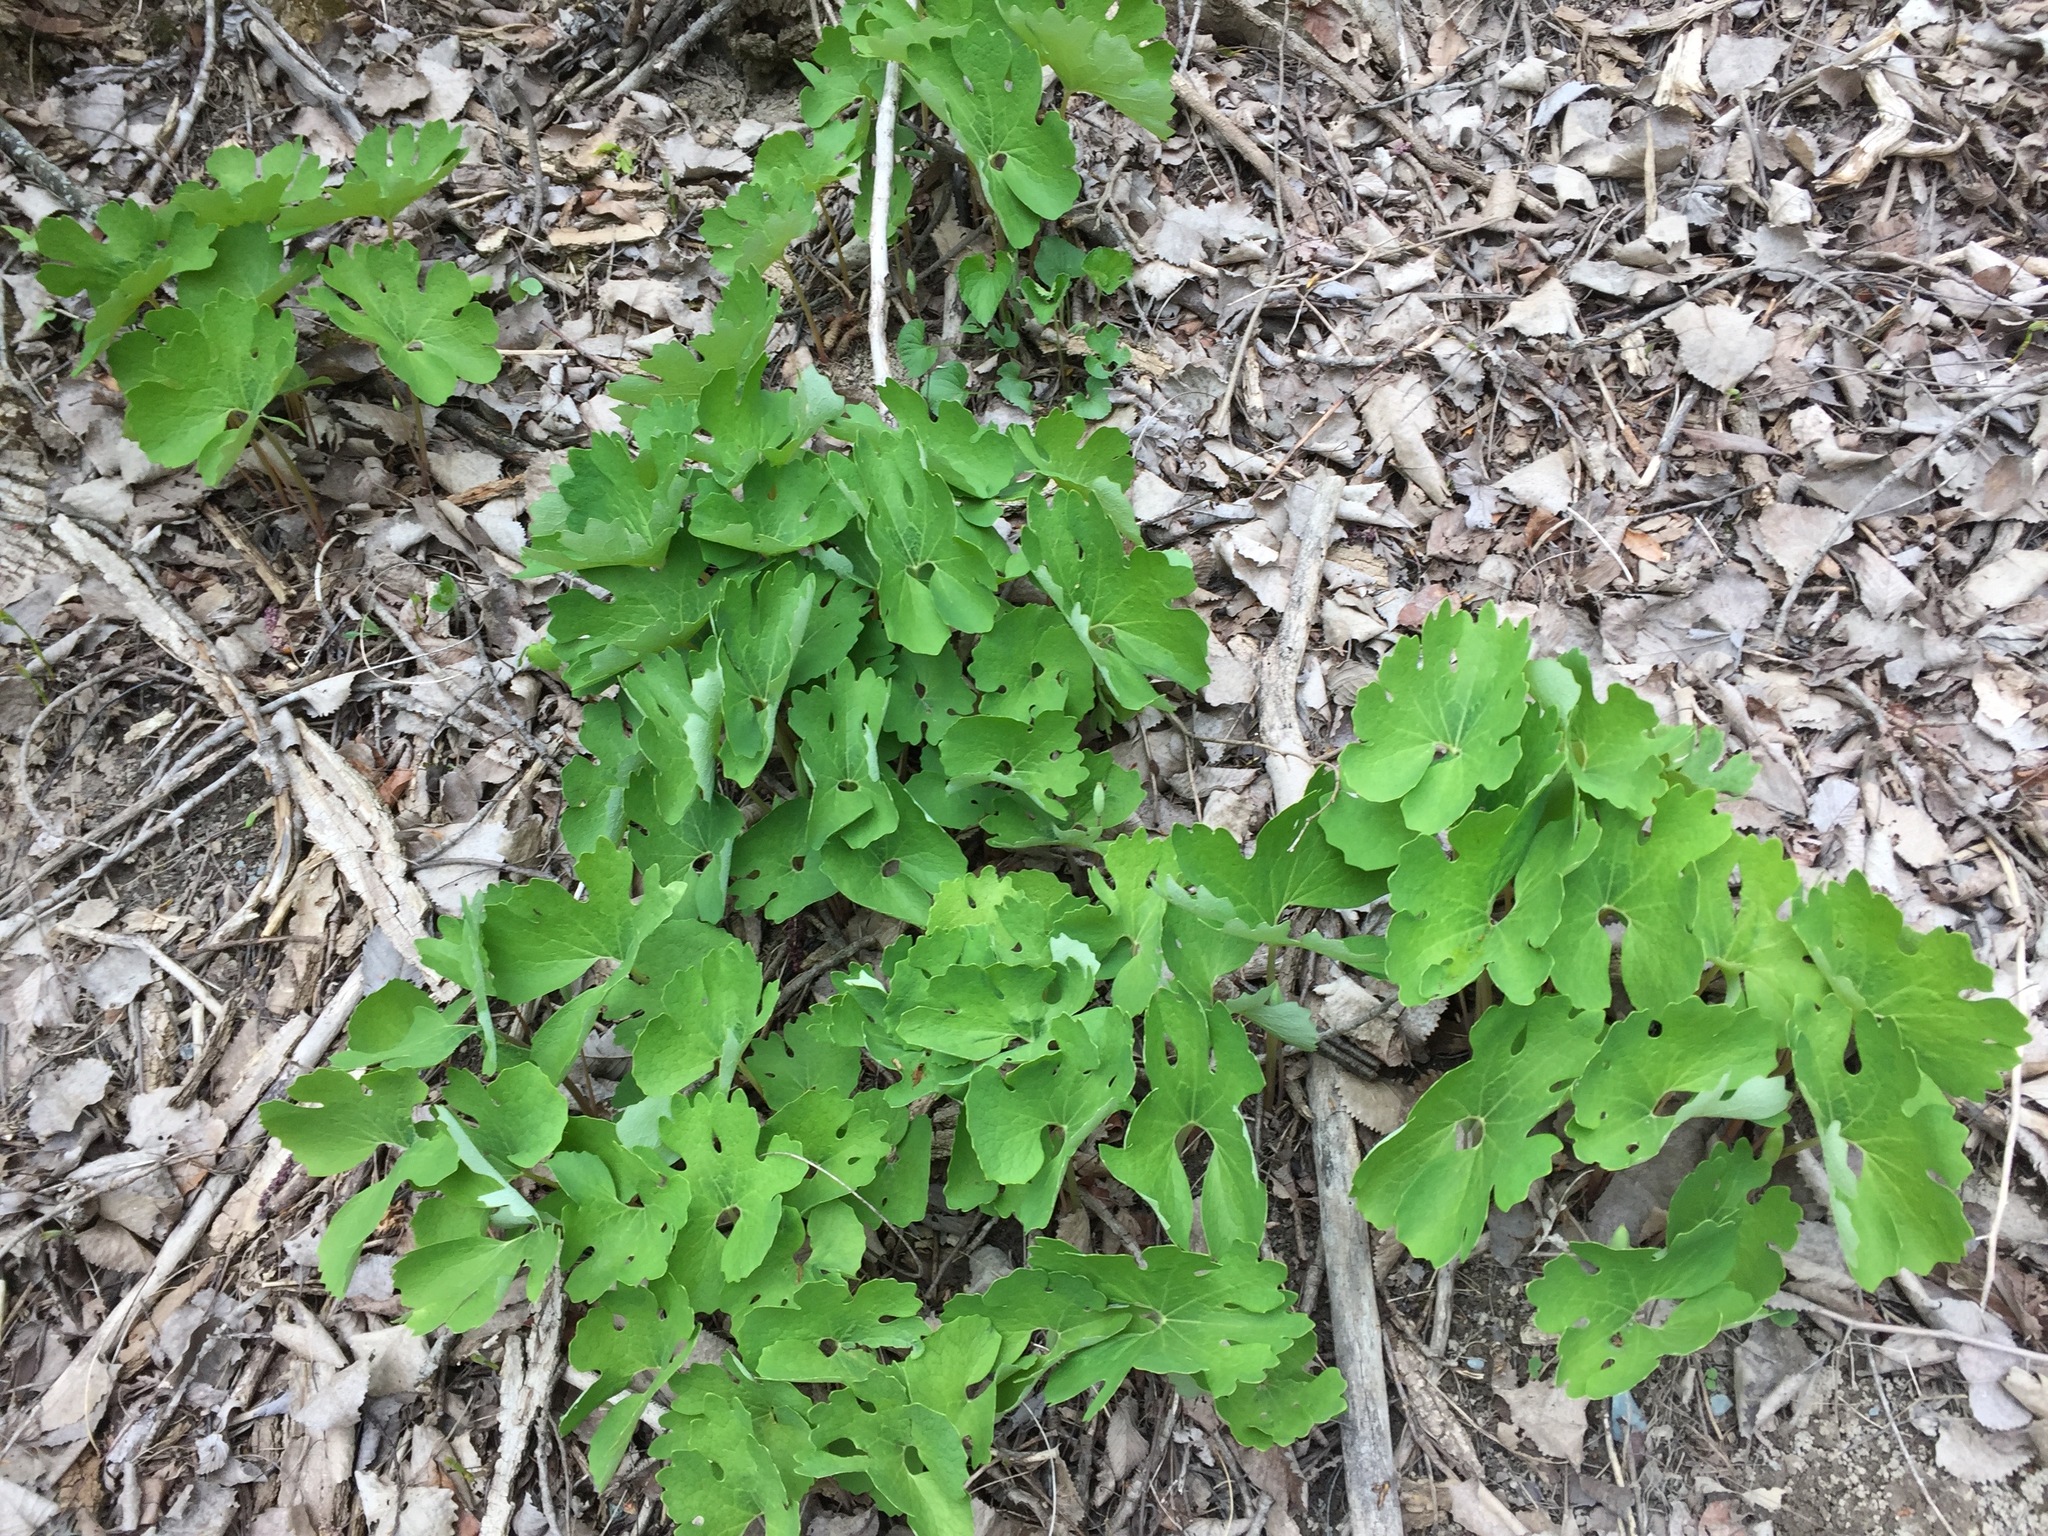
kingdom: Plantae
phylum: Tracheophyta
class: Magnoliopsida
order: Ranunculales
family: Papaveraceae
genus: Sanguinaria
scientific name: Sanguinaria canadensis
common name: Bloodroot
